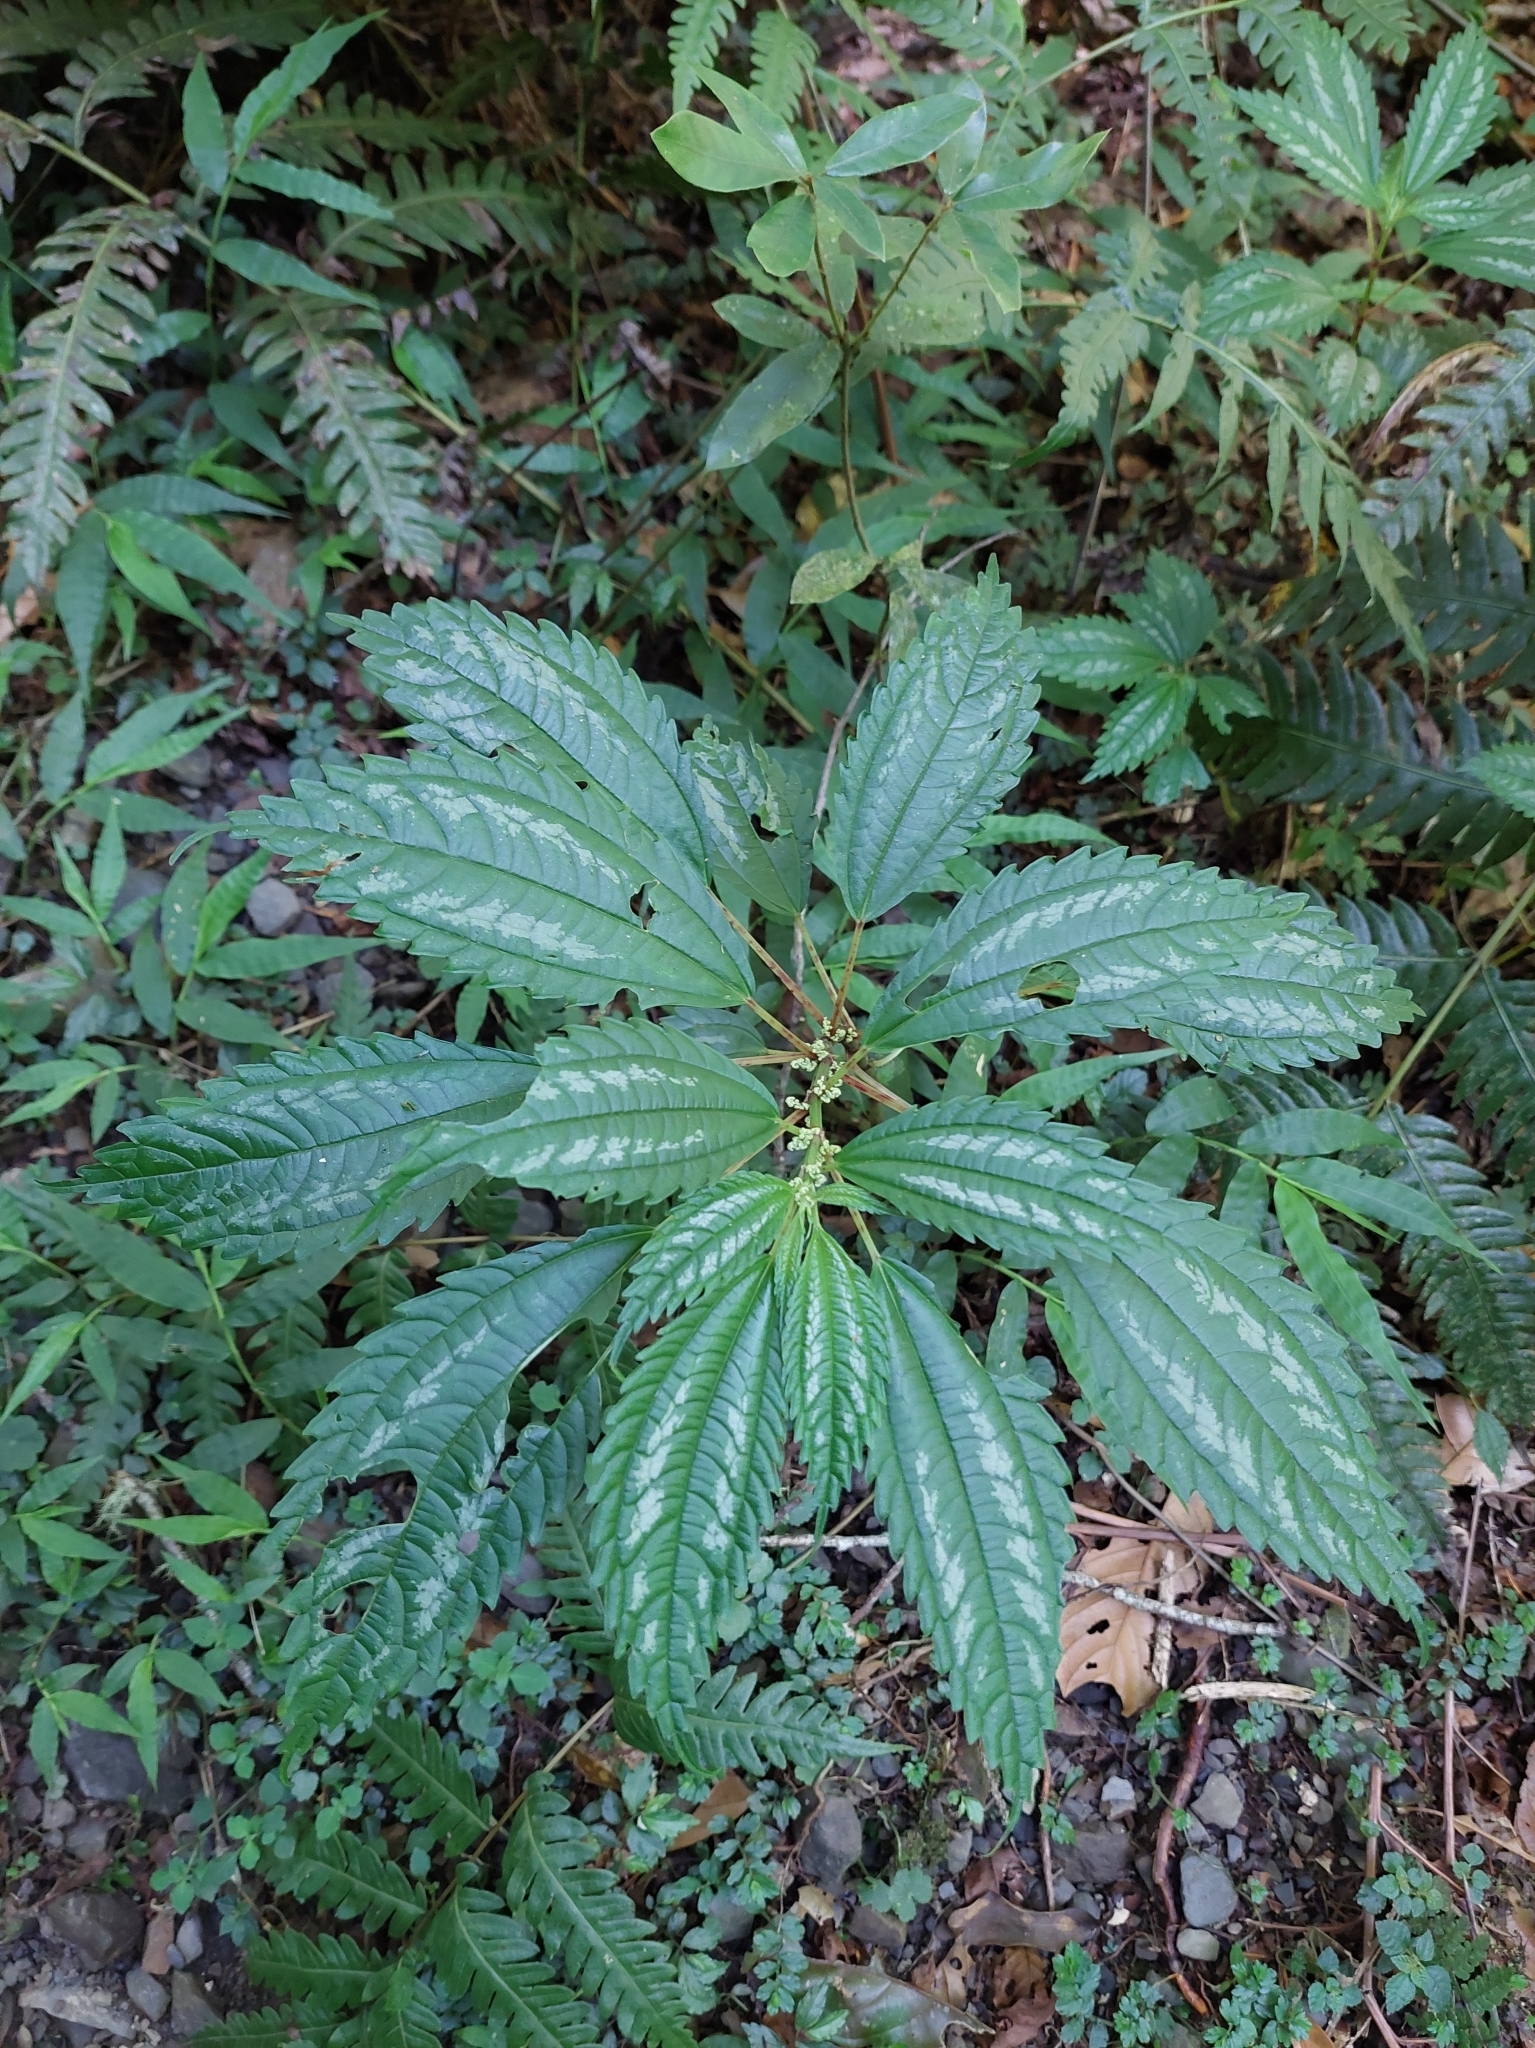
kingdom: Plantae
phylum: Tracheophyta
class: Magnoliopsida
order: Rosales
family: Urticaceae
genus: Pilea
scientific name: Pilea matsudae
